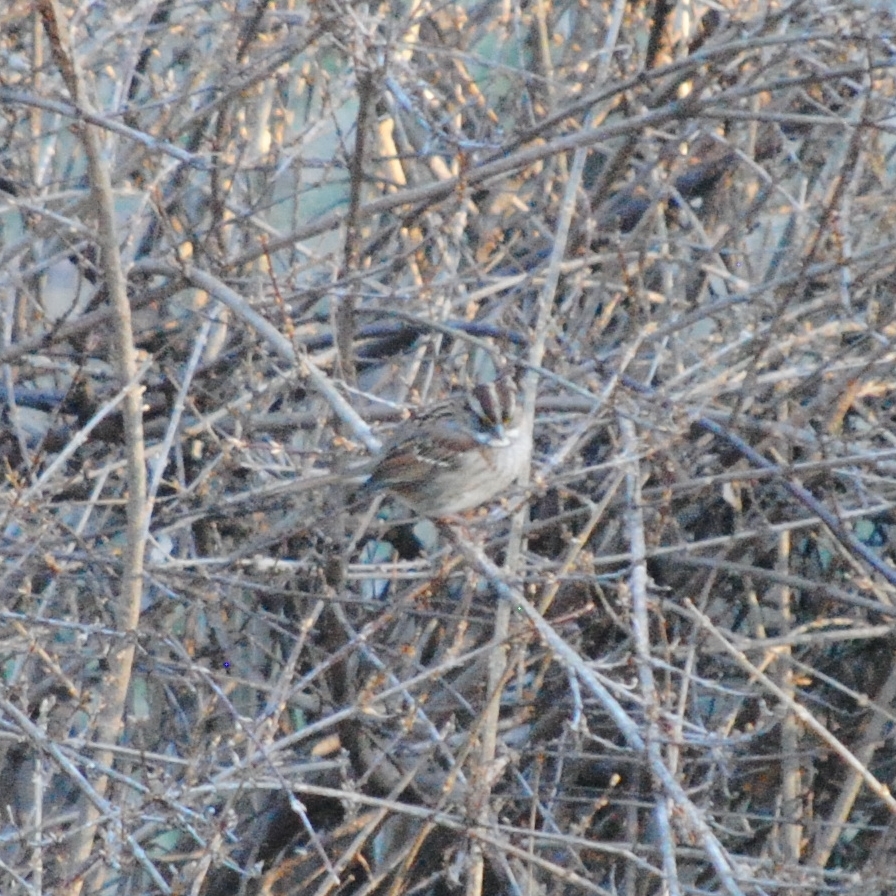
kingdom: Animalia
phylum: Chordata
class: Aves
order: Passeriformes
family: Passerellidae
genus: Zonotrichia
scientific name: Zonotrichia albicollis
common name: White-throated sparrow
